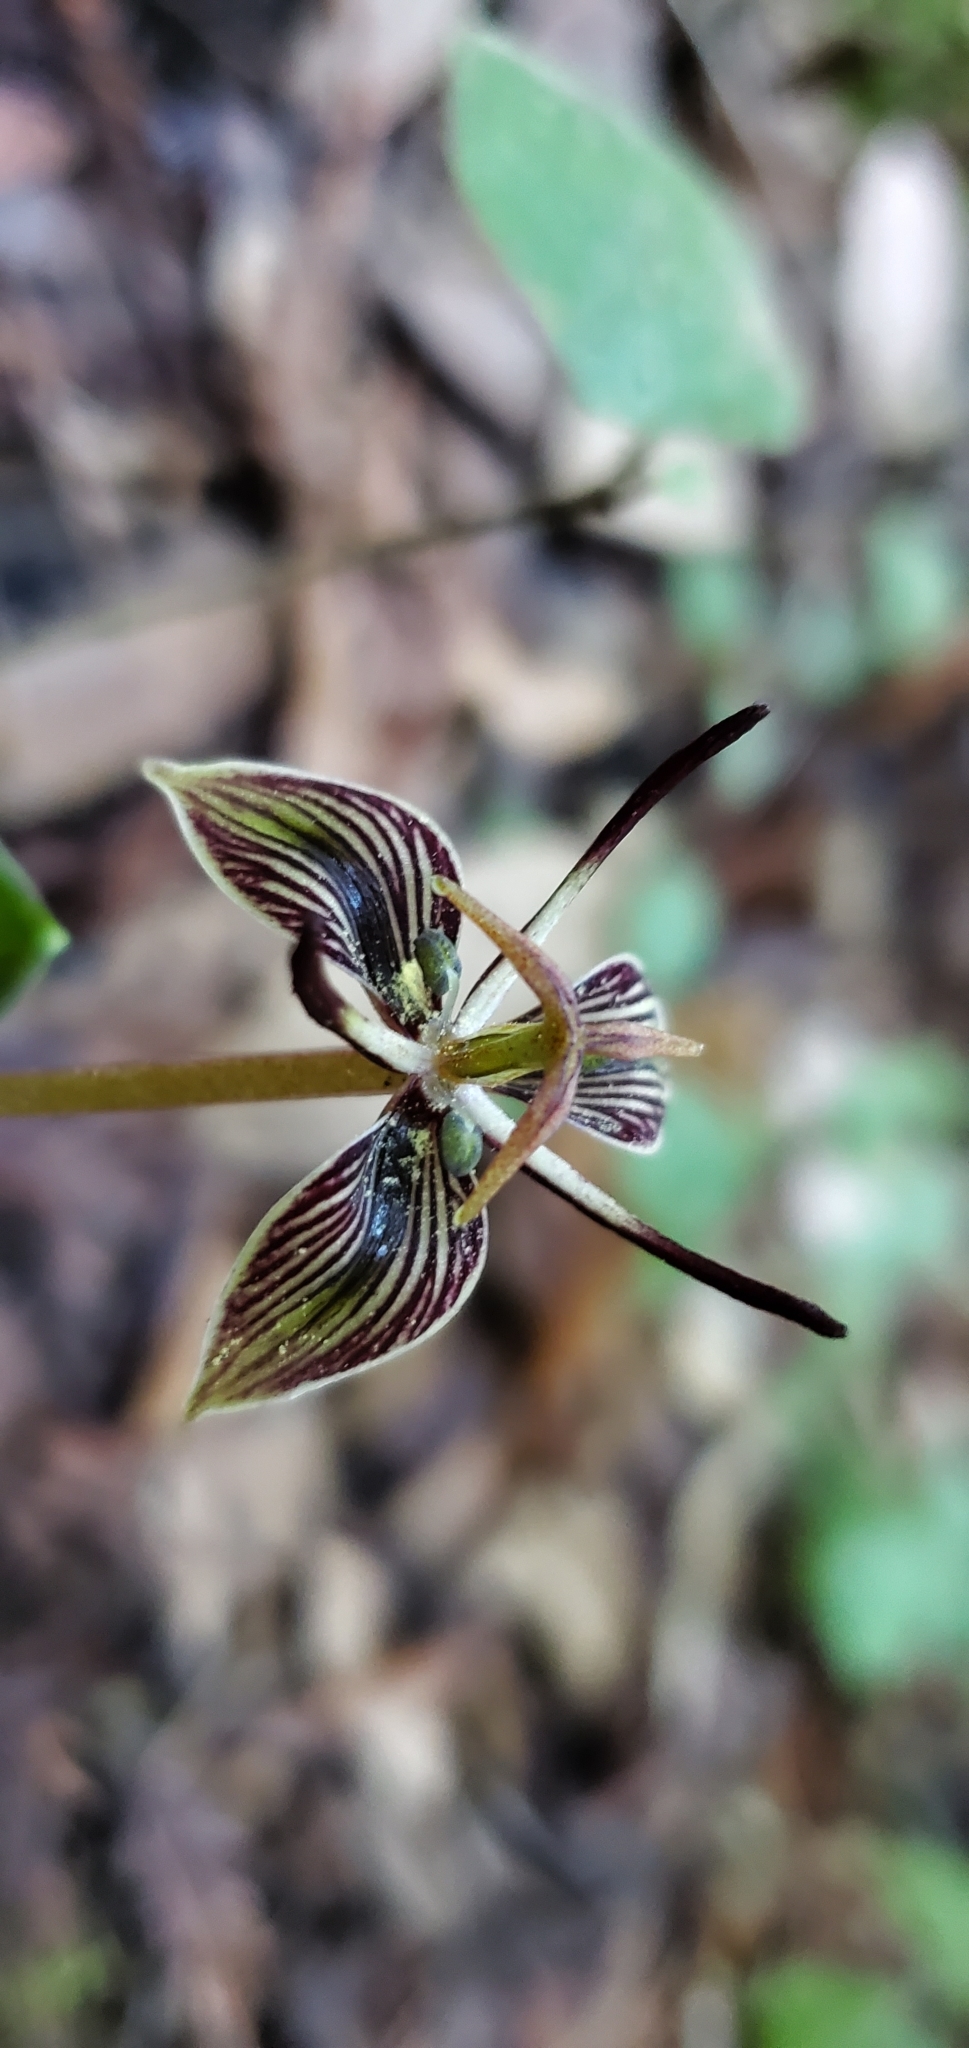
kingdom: Plantae
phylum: Tracheophyta
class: Liliopsida
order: Liliales
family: Liliaceae
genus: Scoliopus
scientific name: Scoliopus bigelovii
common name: Foetid adder's-tongue
